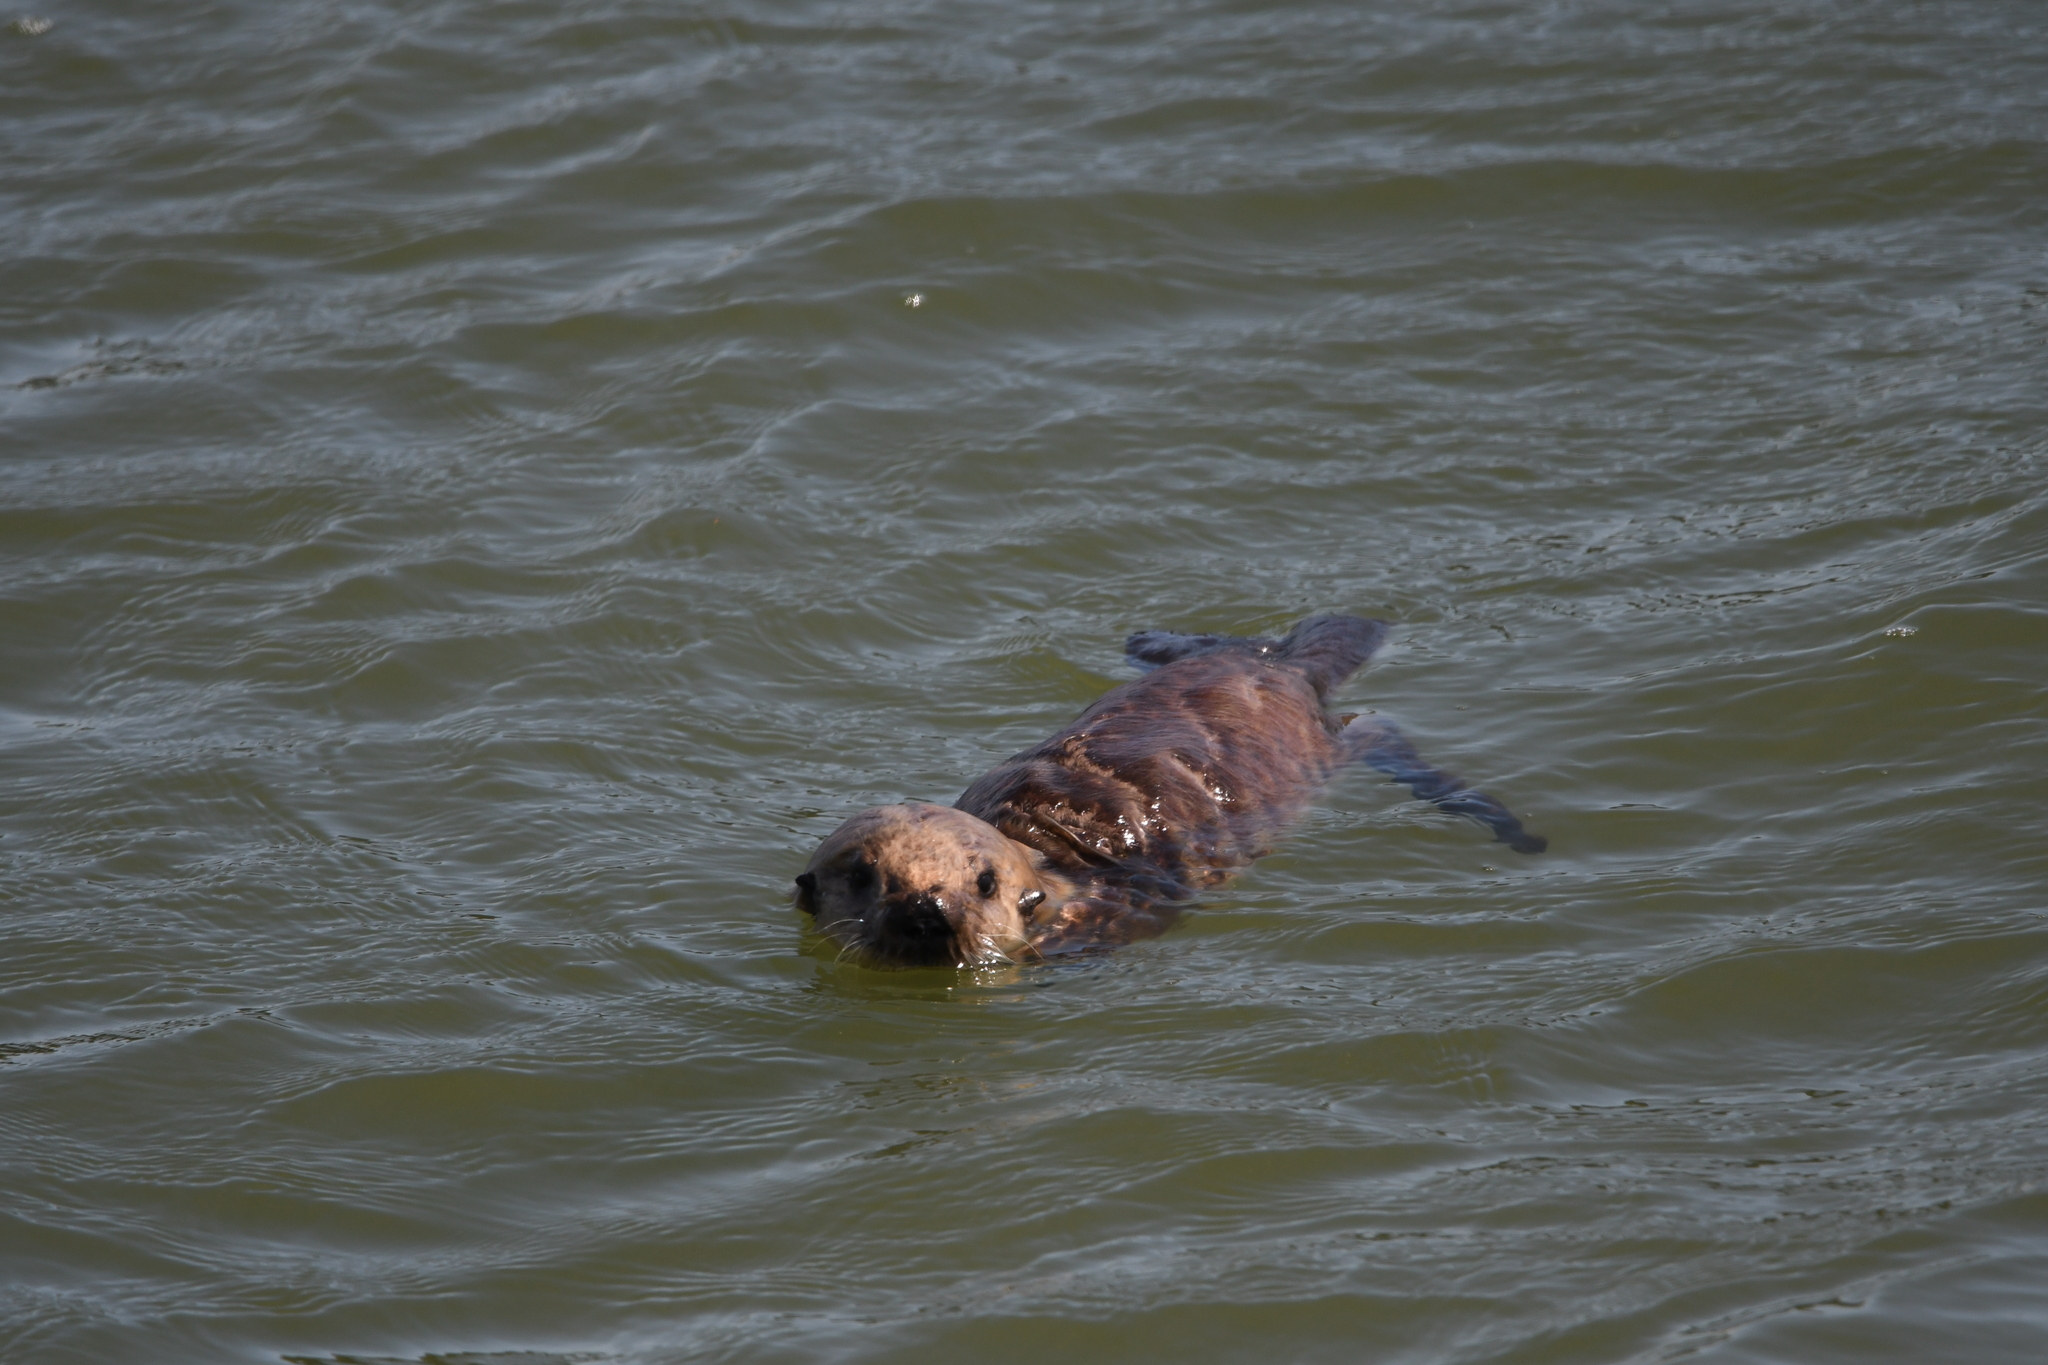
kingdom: Animalia
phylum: Chordata
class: Mammalia
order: Carnivora
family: Mustelidae
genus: Enhydra
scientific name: Enhydra lutris
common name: Sea otter
